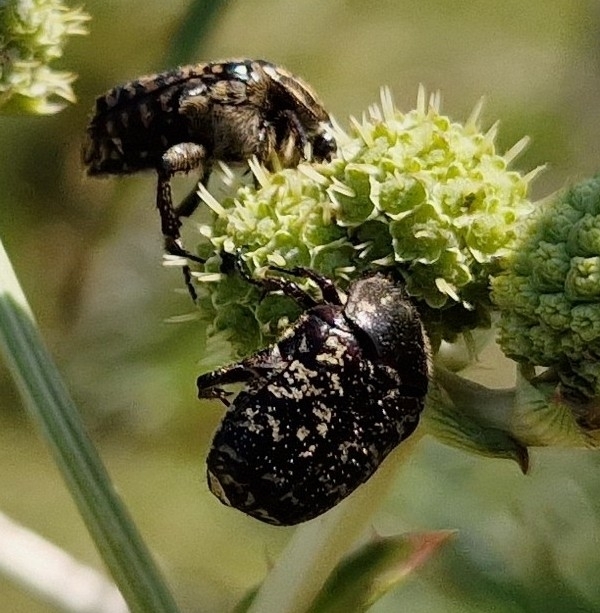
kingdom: Animalia
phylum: Arthropoda
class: Insecta
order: Coleoptera
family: Scarabaeidae
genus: Euphoria
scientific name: Euphoria lurida
